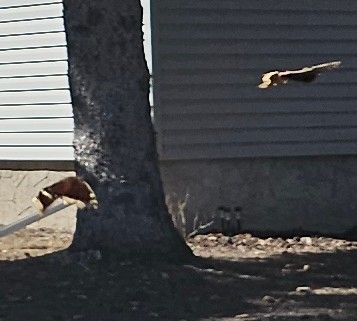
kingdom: Animalia
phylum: Arthropoda
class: Insecta
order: Lepidoptera
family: Nymphalidae
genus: Nymphalis
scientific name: Nymphalis antiopa
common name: Camberwell beauty
